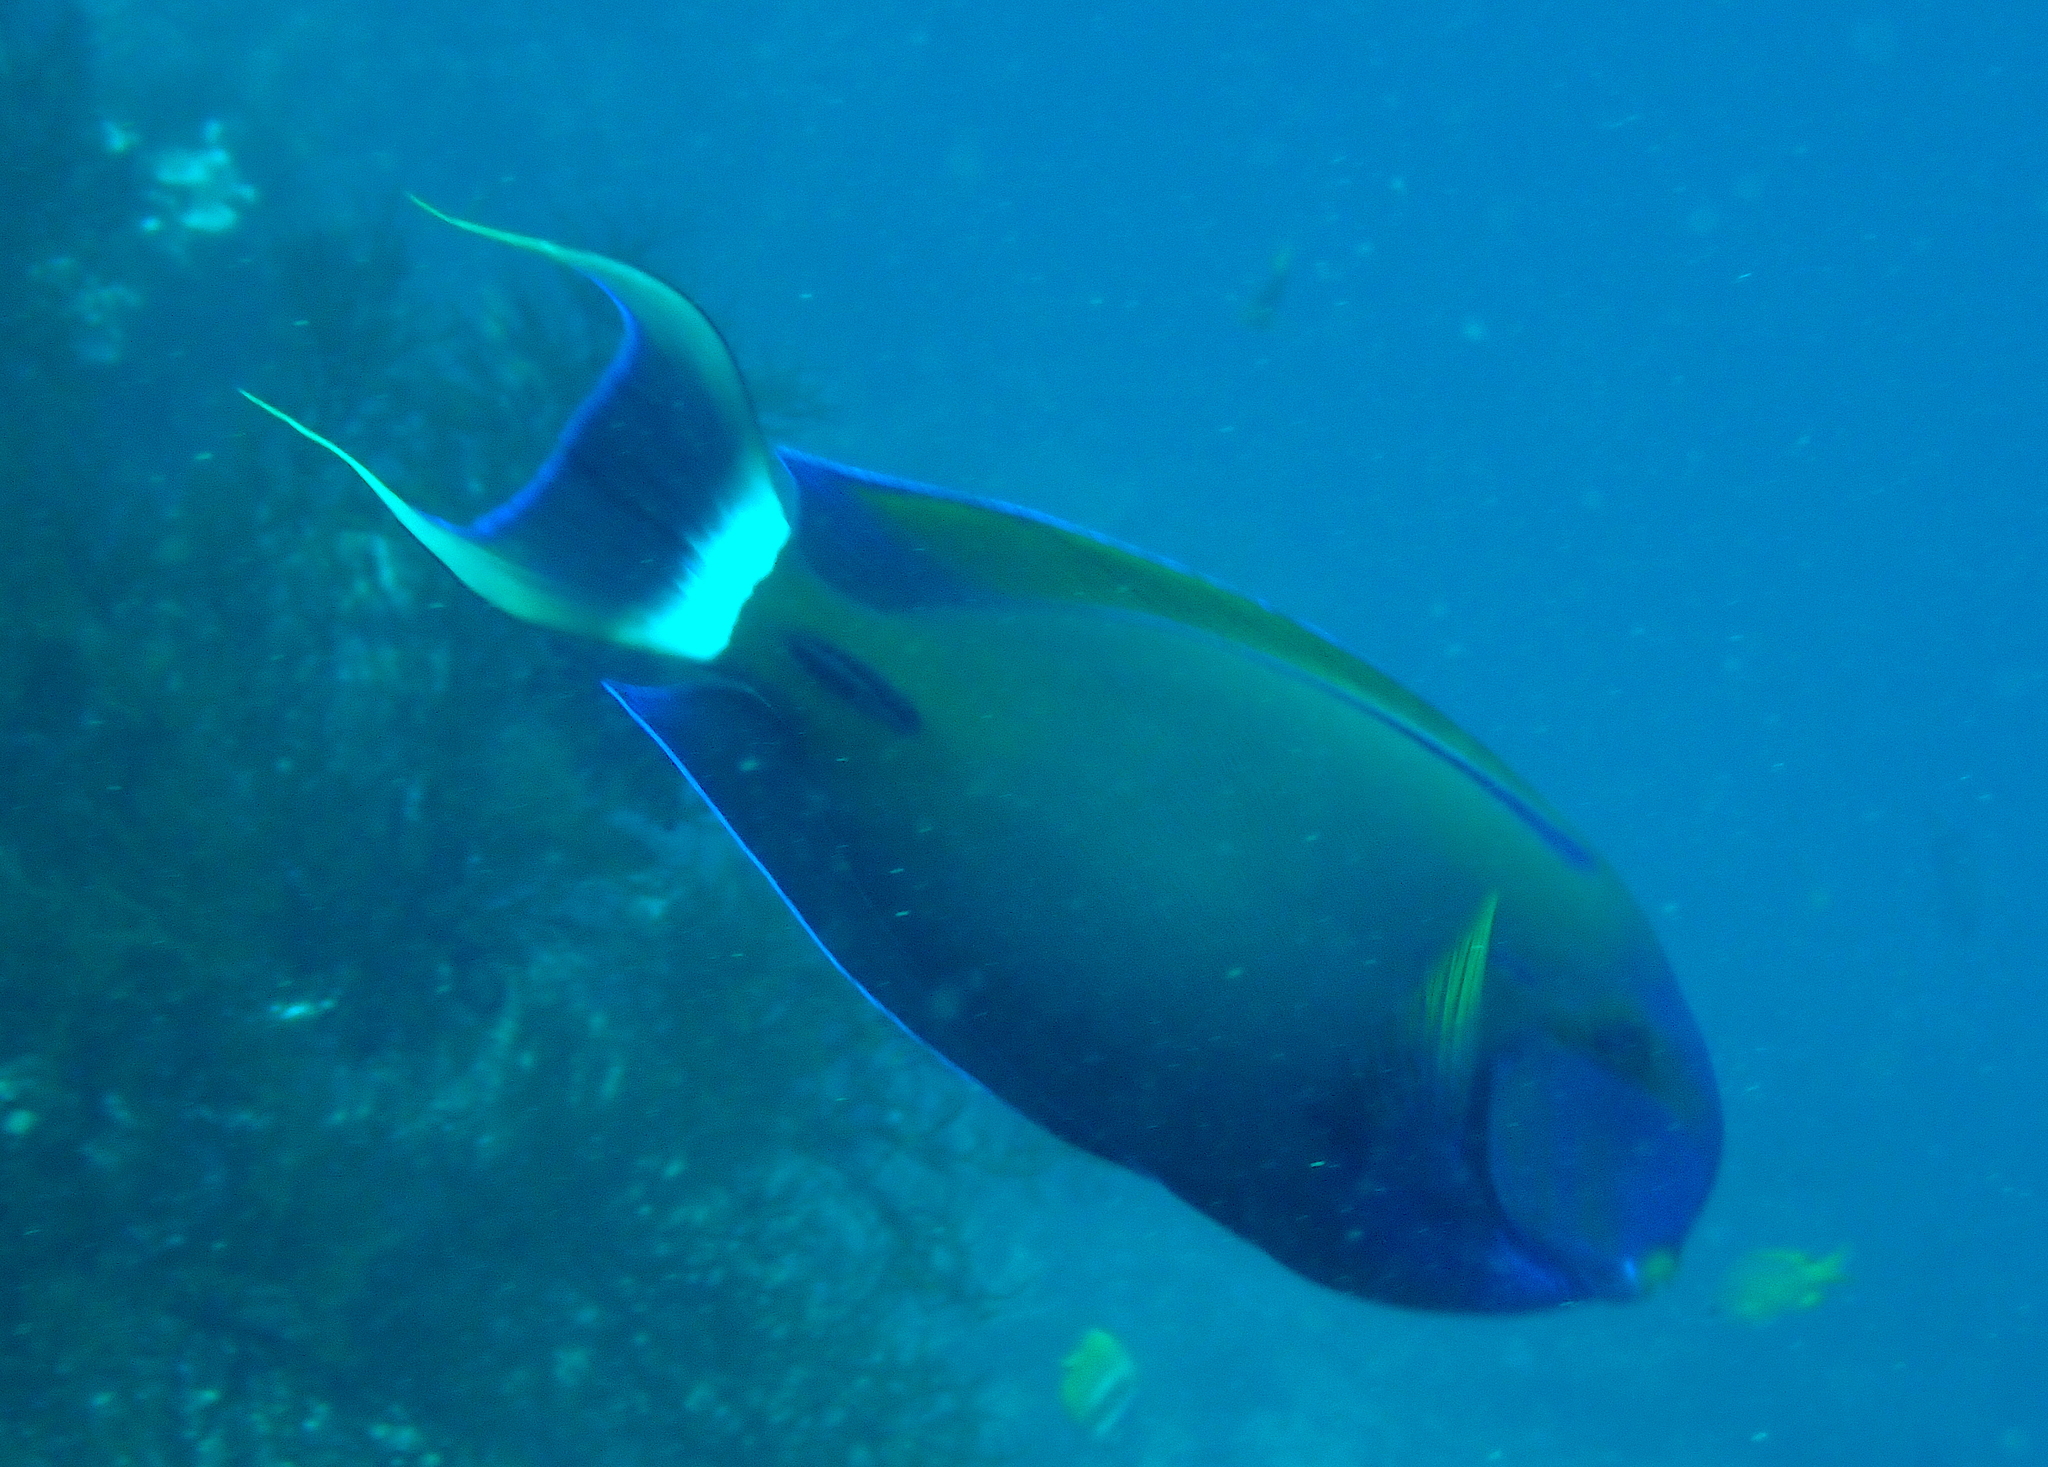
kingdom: Animalia
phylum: Chordata
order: Perciformes
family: Acanthuridae
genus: Acanthurus
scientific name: Acanthurus fowleri
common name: Fowler's surgeonfish
